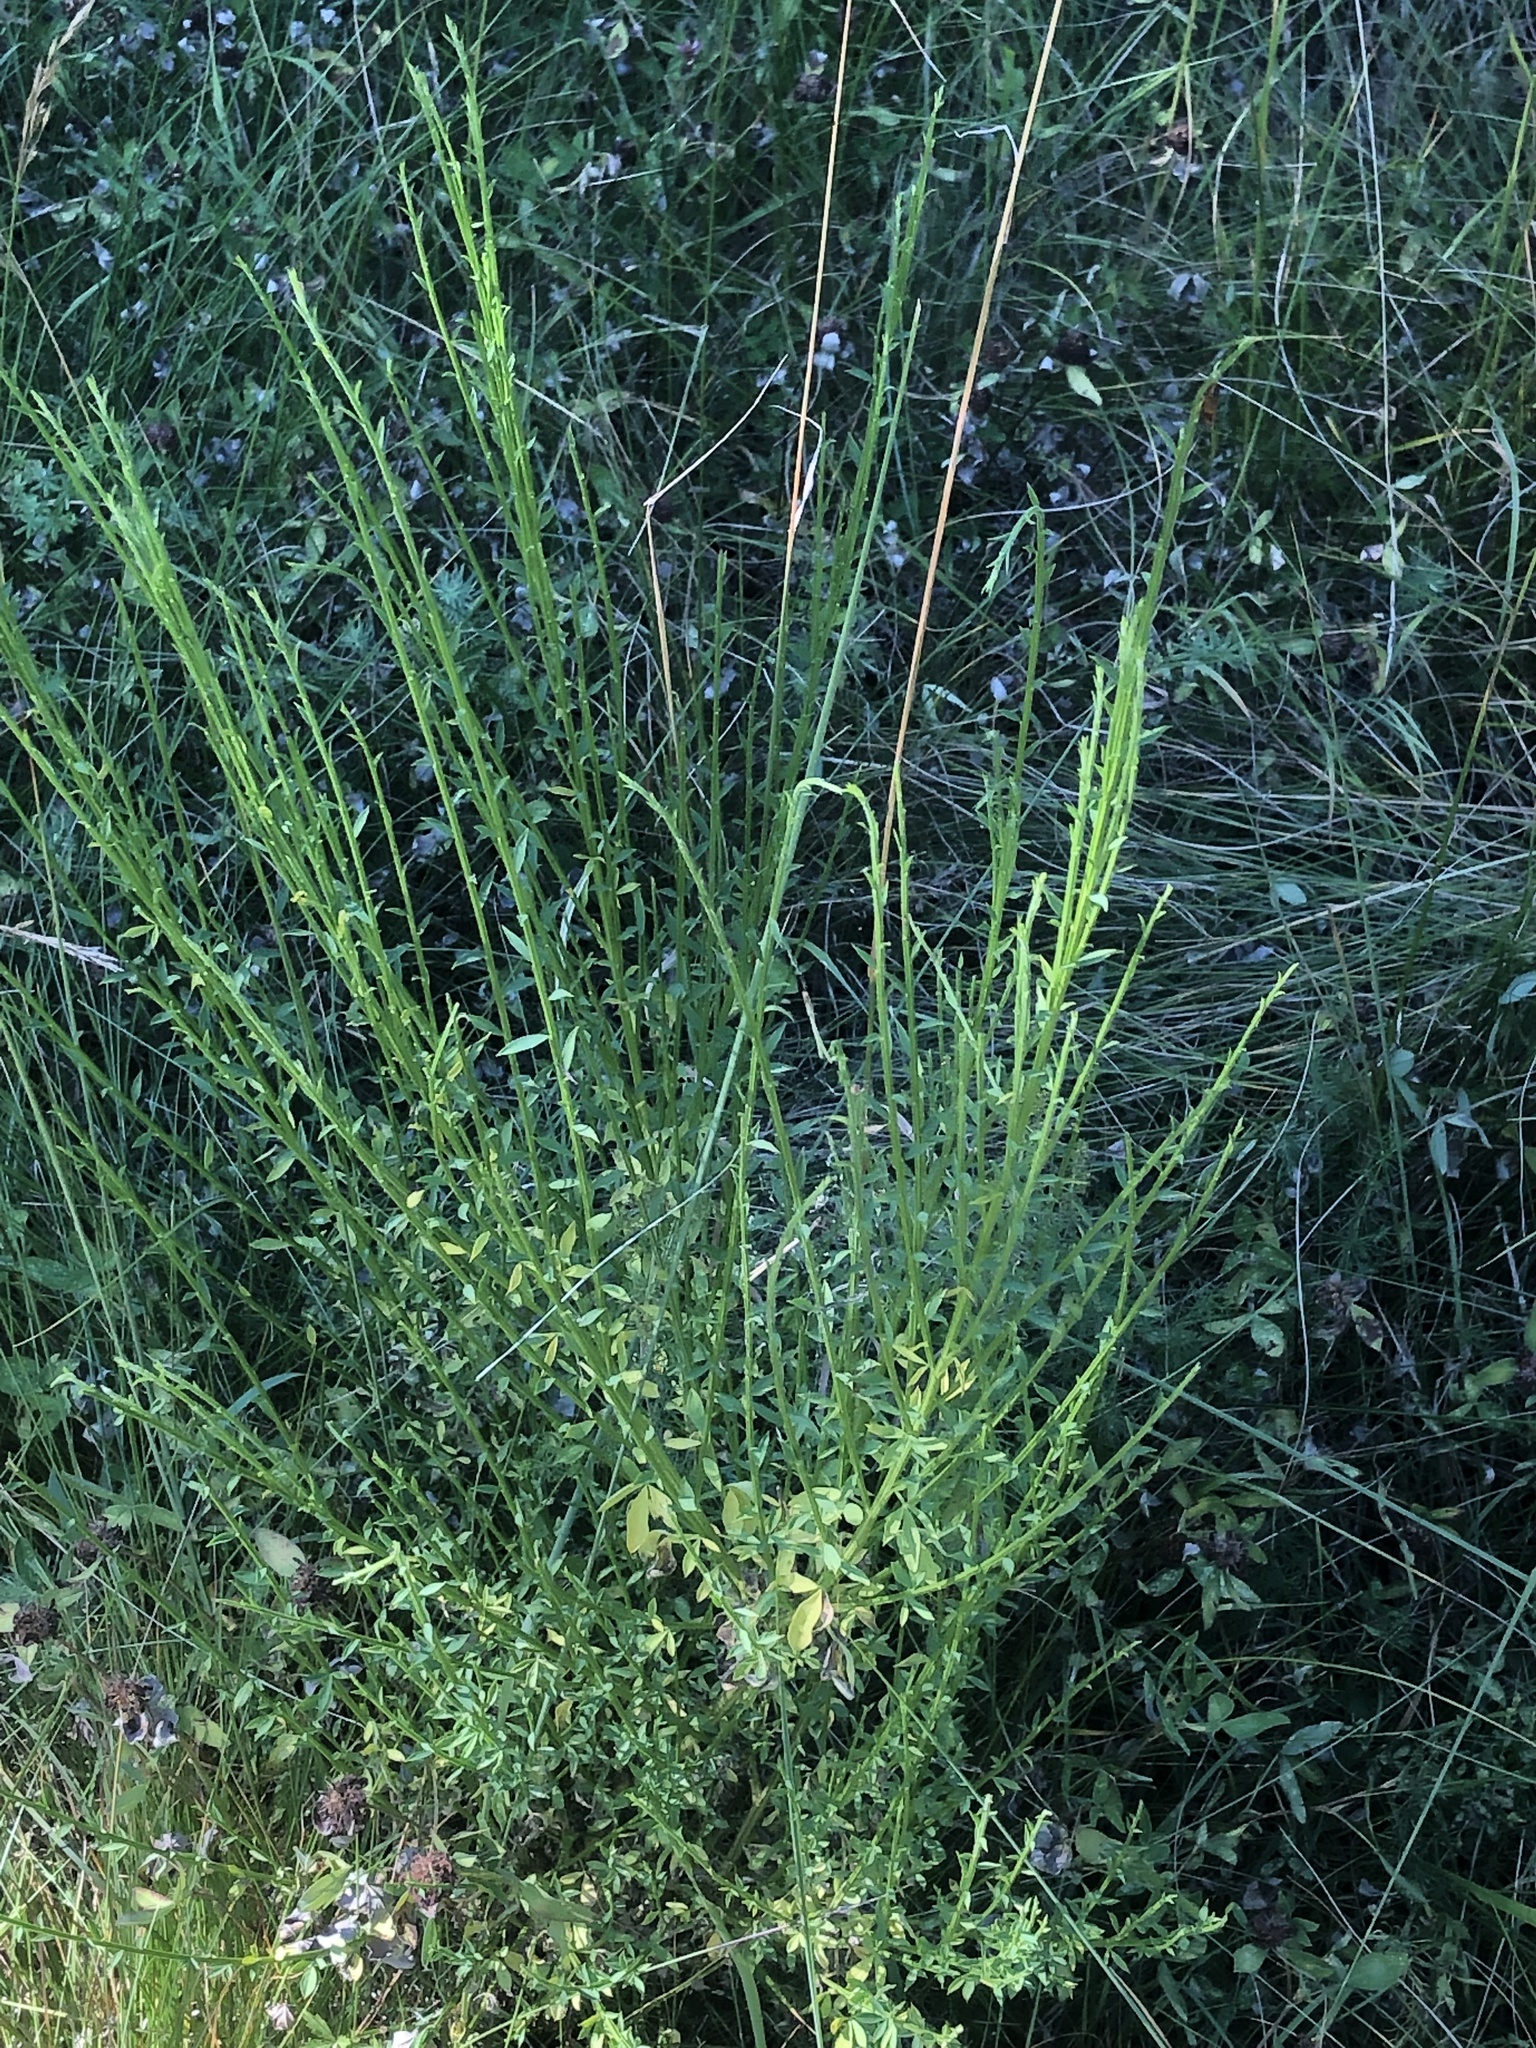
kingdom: Plantae
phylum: Tracheophyta
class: Magnoliopsida
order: Fabales
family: Fabaceae
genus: Cytisus
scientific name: Cytisus scoparius
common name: Scotch broom
